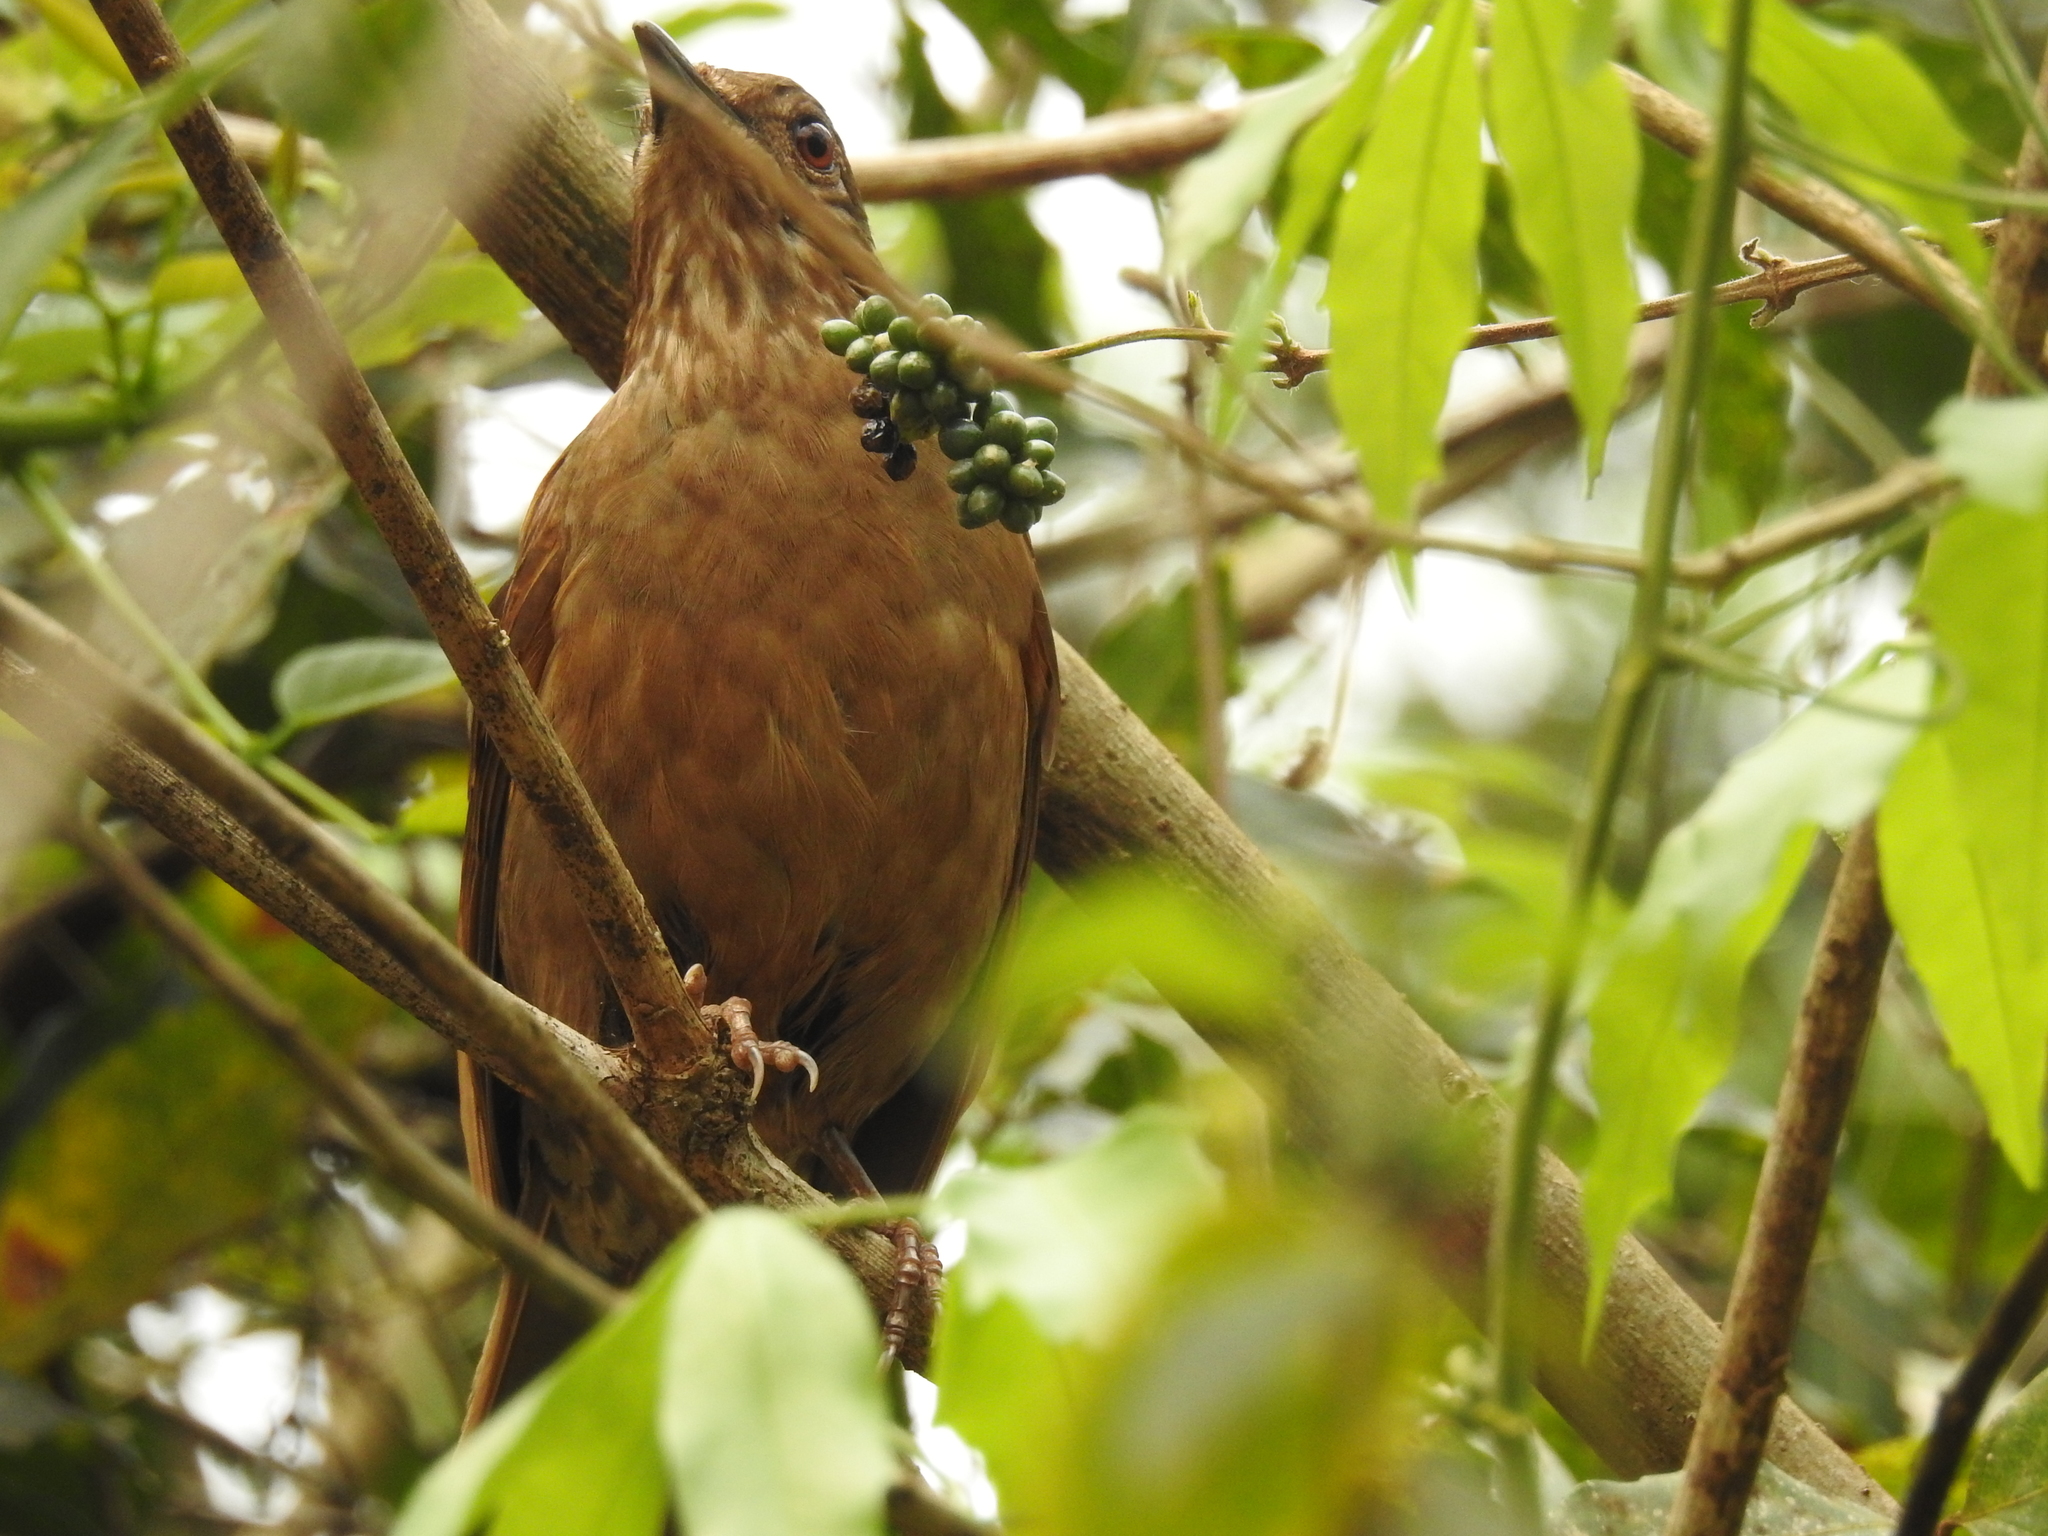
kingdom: Animalia
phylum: Chordata
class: Aves
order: Passeriformes
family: Turdidae
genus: Turdus
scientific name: Turdus leucomelas
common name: Pale-breasted thrush
